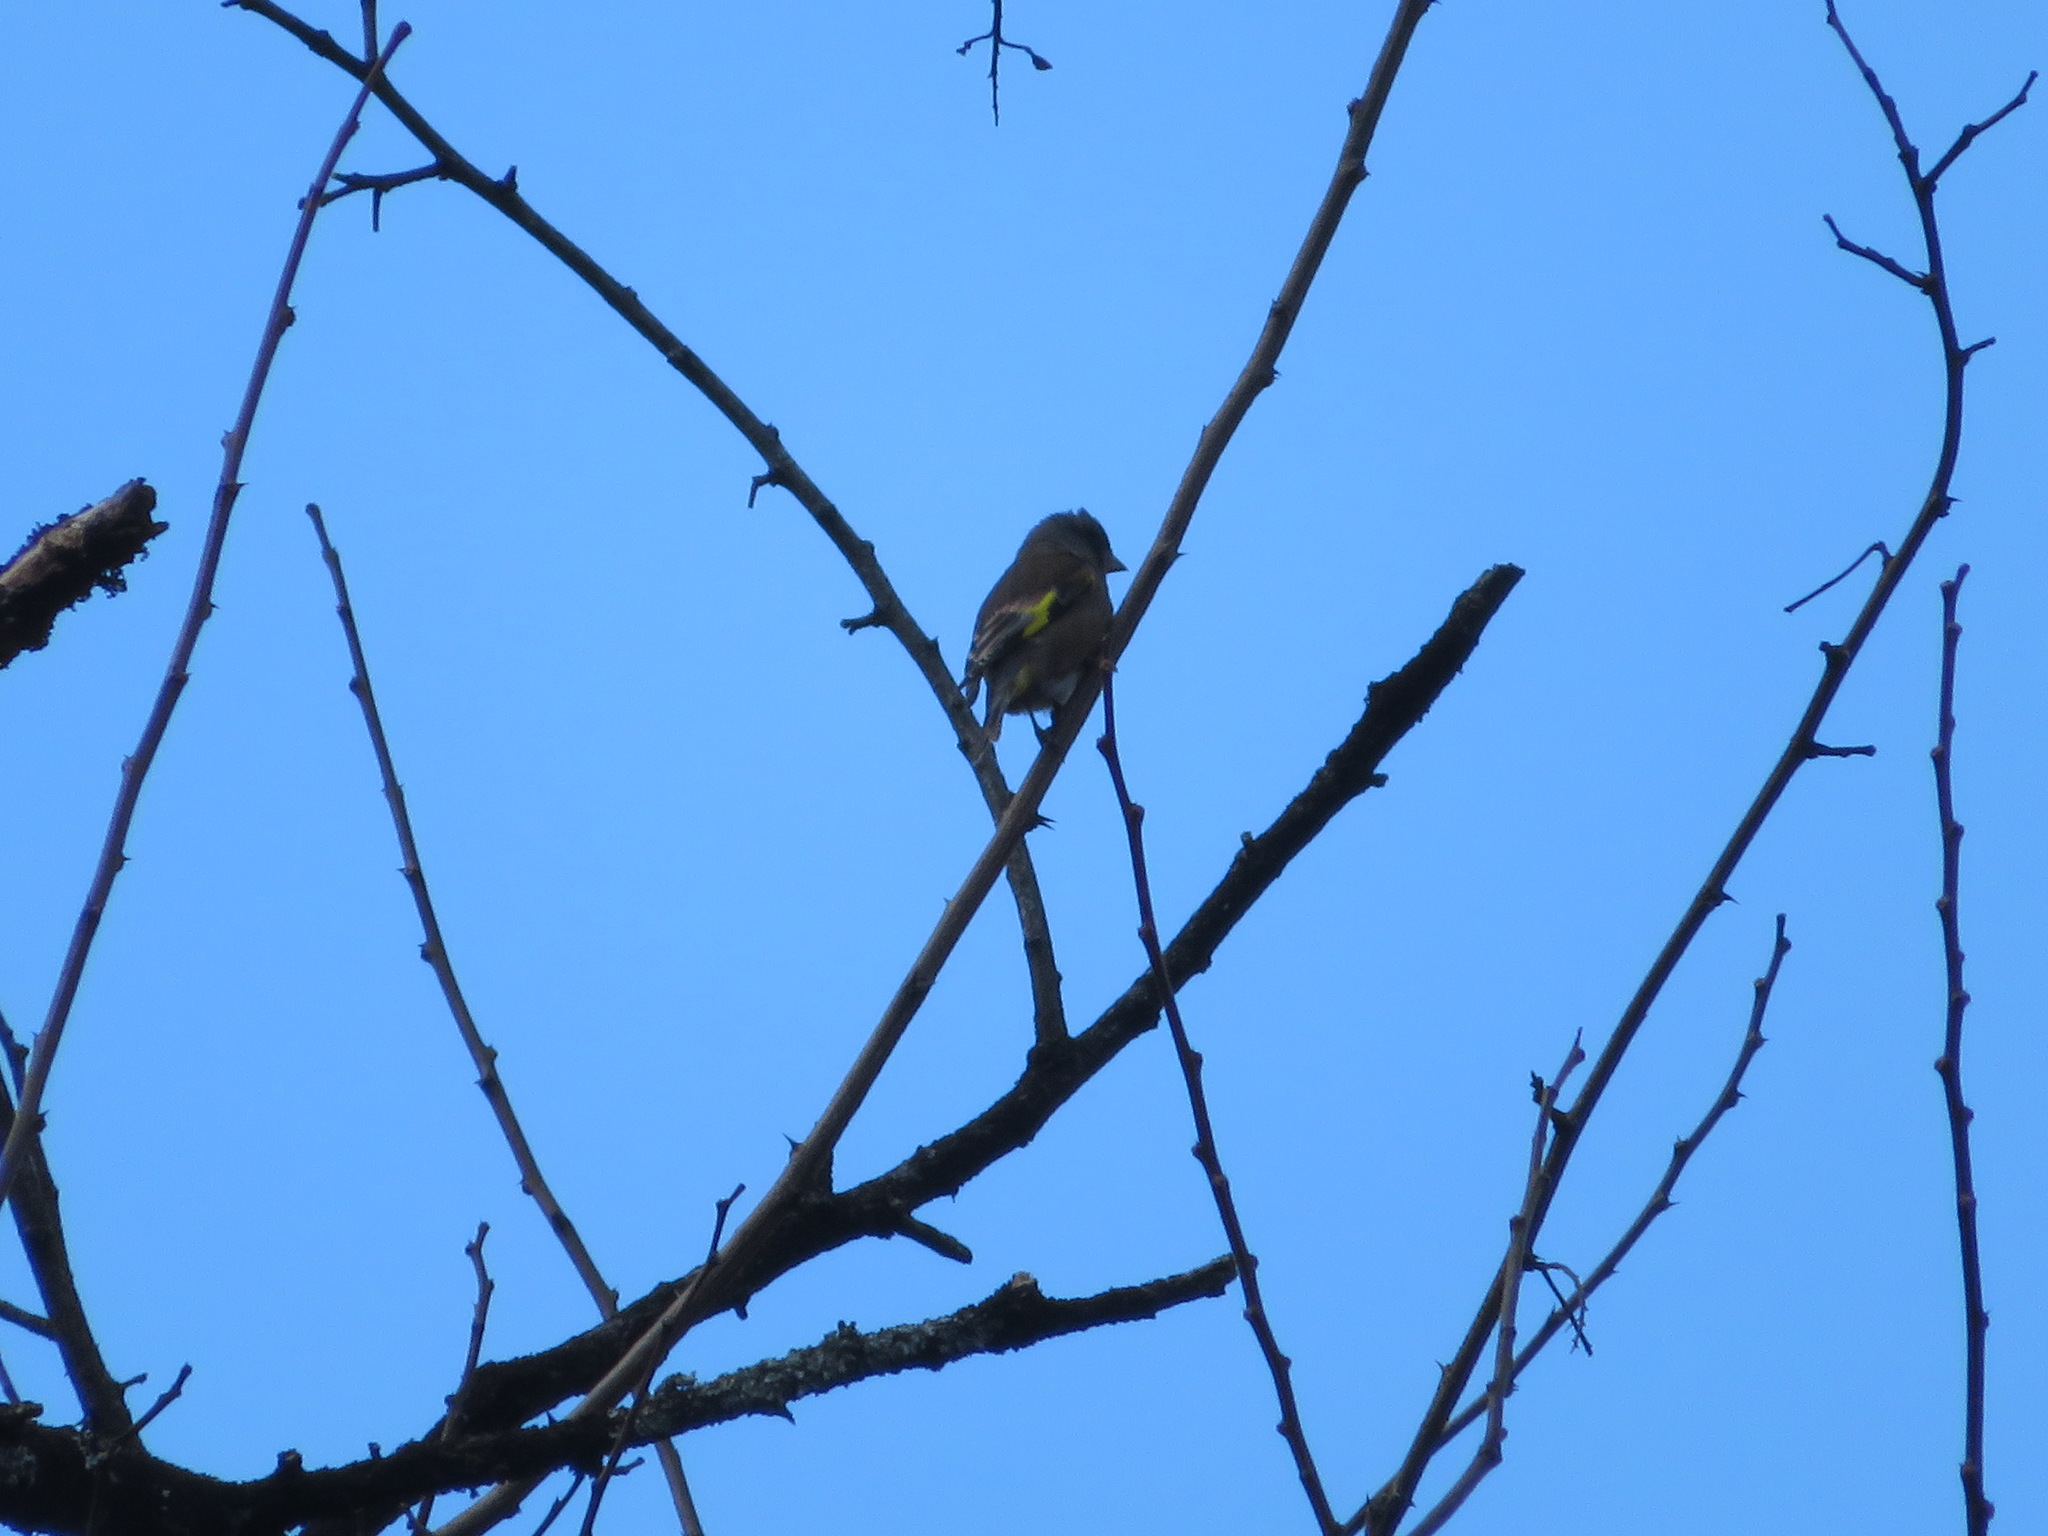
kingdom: Plantae
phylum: Tracheophyta
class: Liliopsida
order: Poales
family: Poaceae
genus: Chloris
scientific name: Chloris sinica
